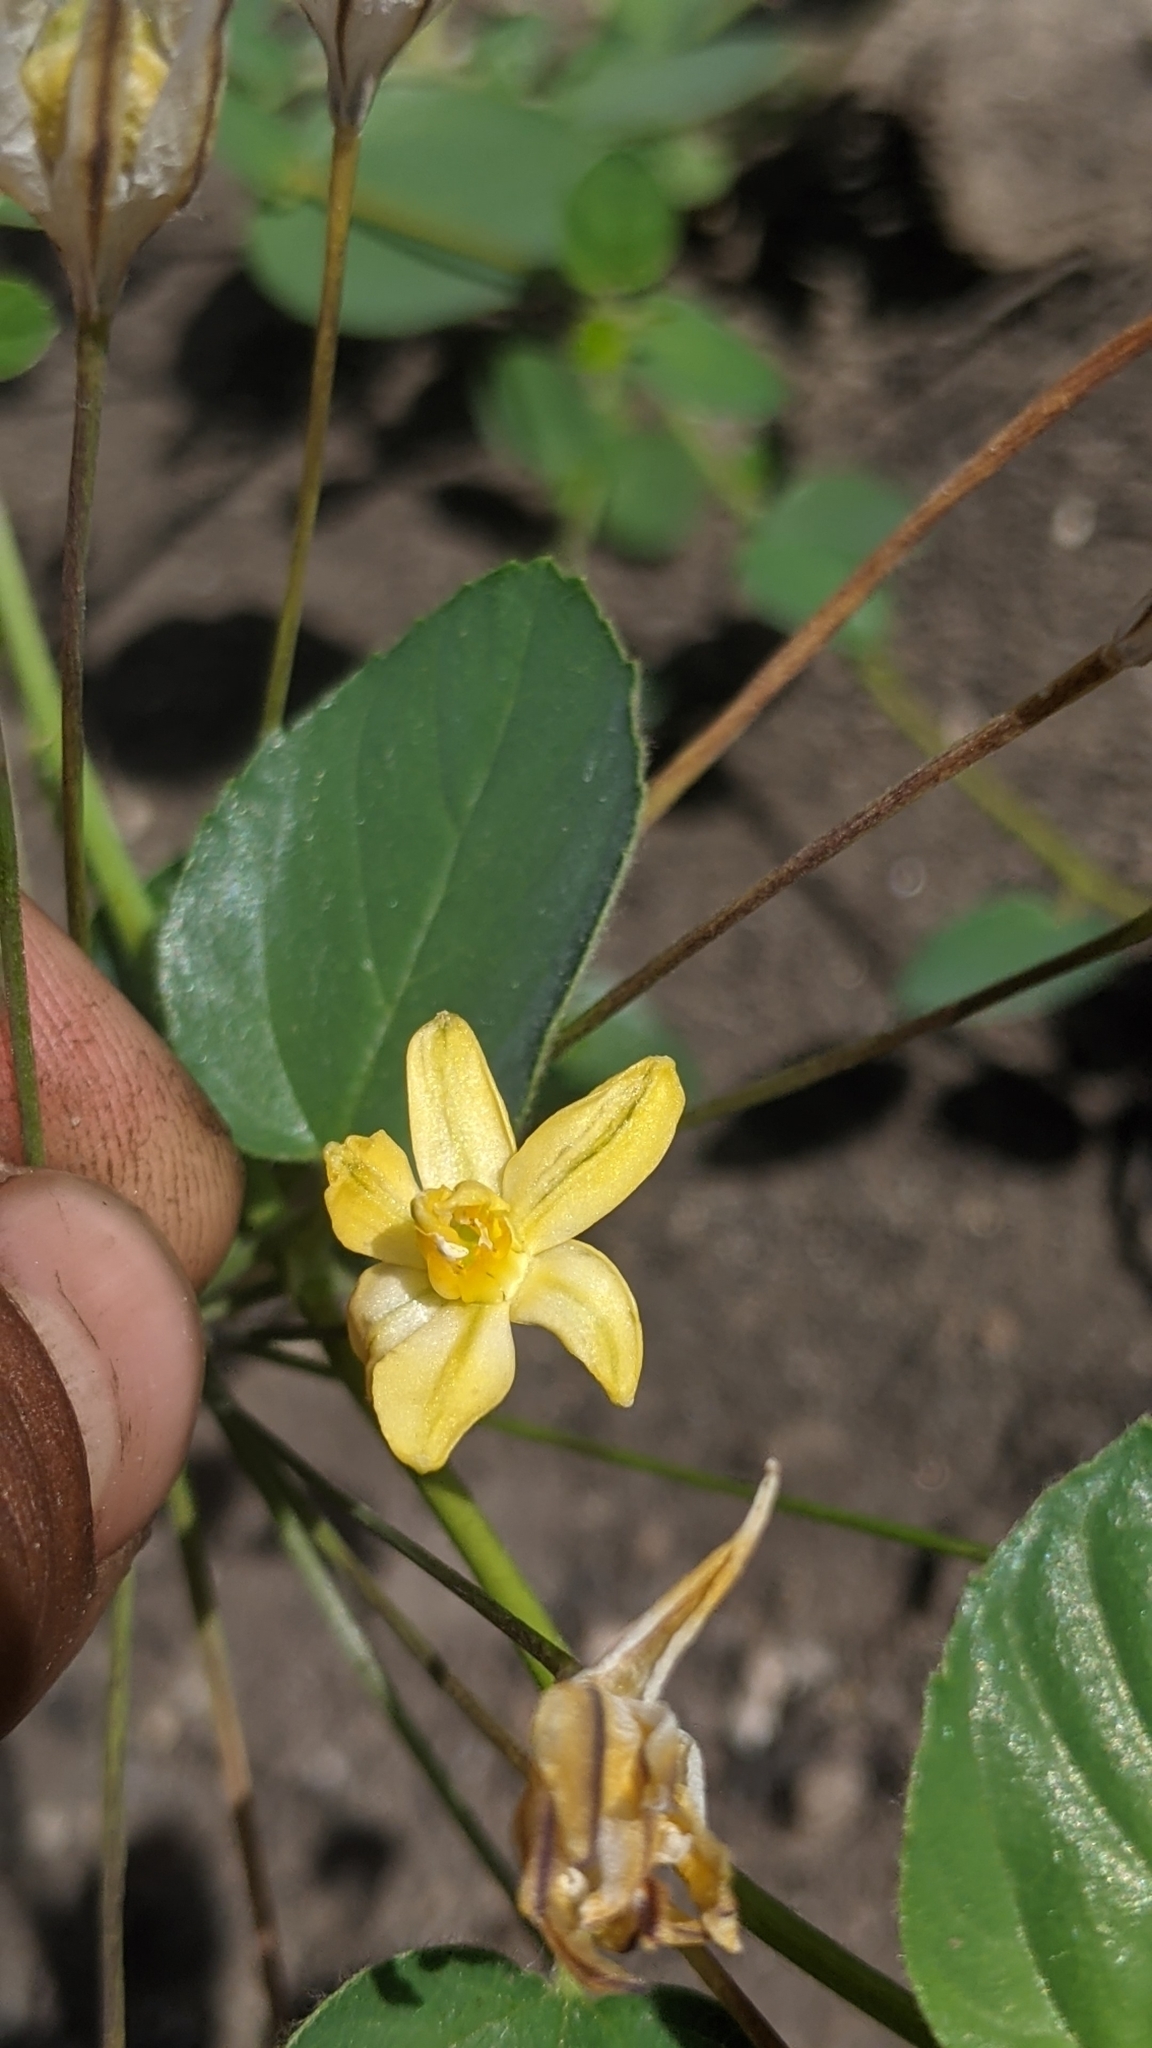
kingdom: Plantae
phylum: Tracheophyta
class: Liliopsida
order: Asparagales
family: Asparagaceae
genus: Triteleia
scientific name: Triteleia ixioides
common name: Yellow-brodiaea
